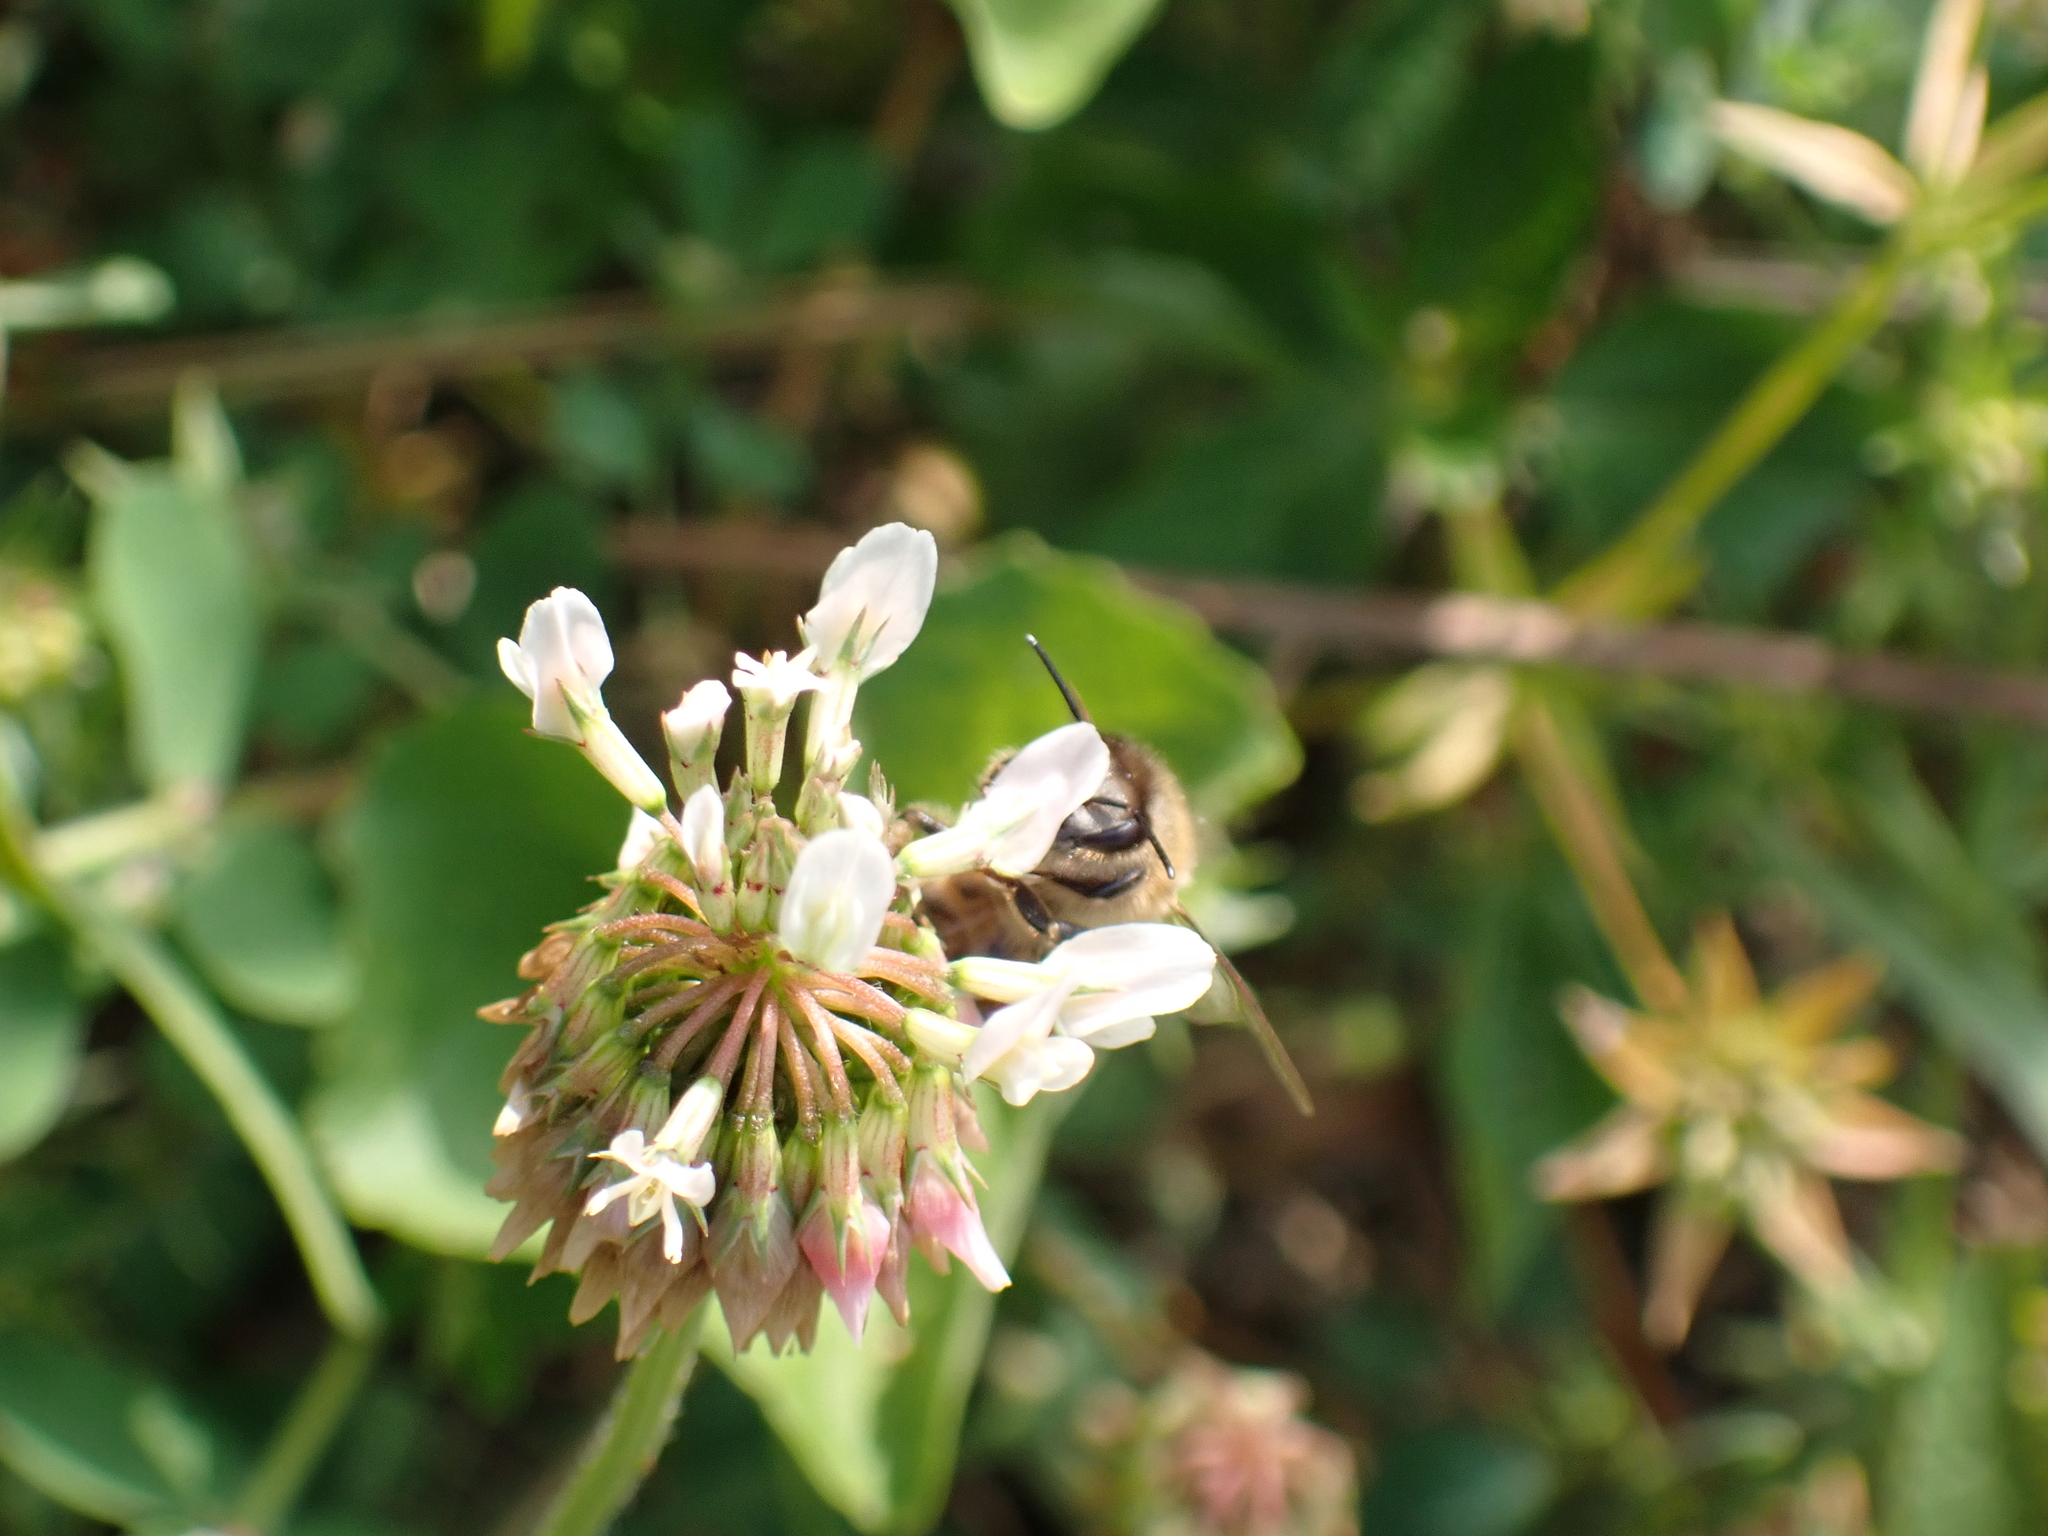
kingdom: Animalia
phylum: Arthropoda
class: Insecta
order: Hymenoptera
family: Apidae
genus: Apis
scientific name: Apis mellifera
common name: Honey bee
